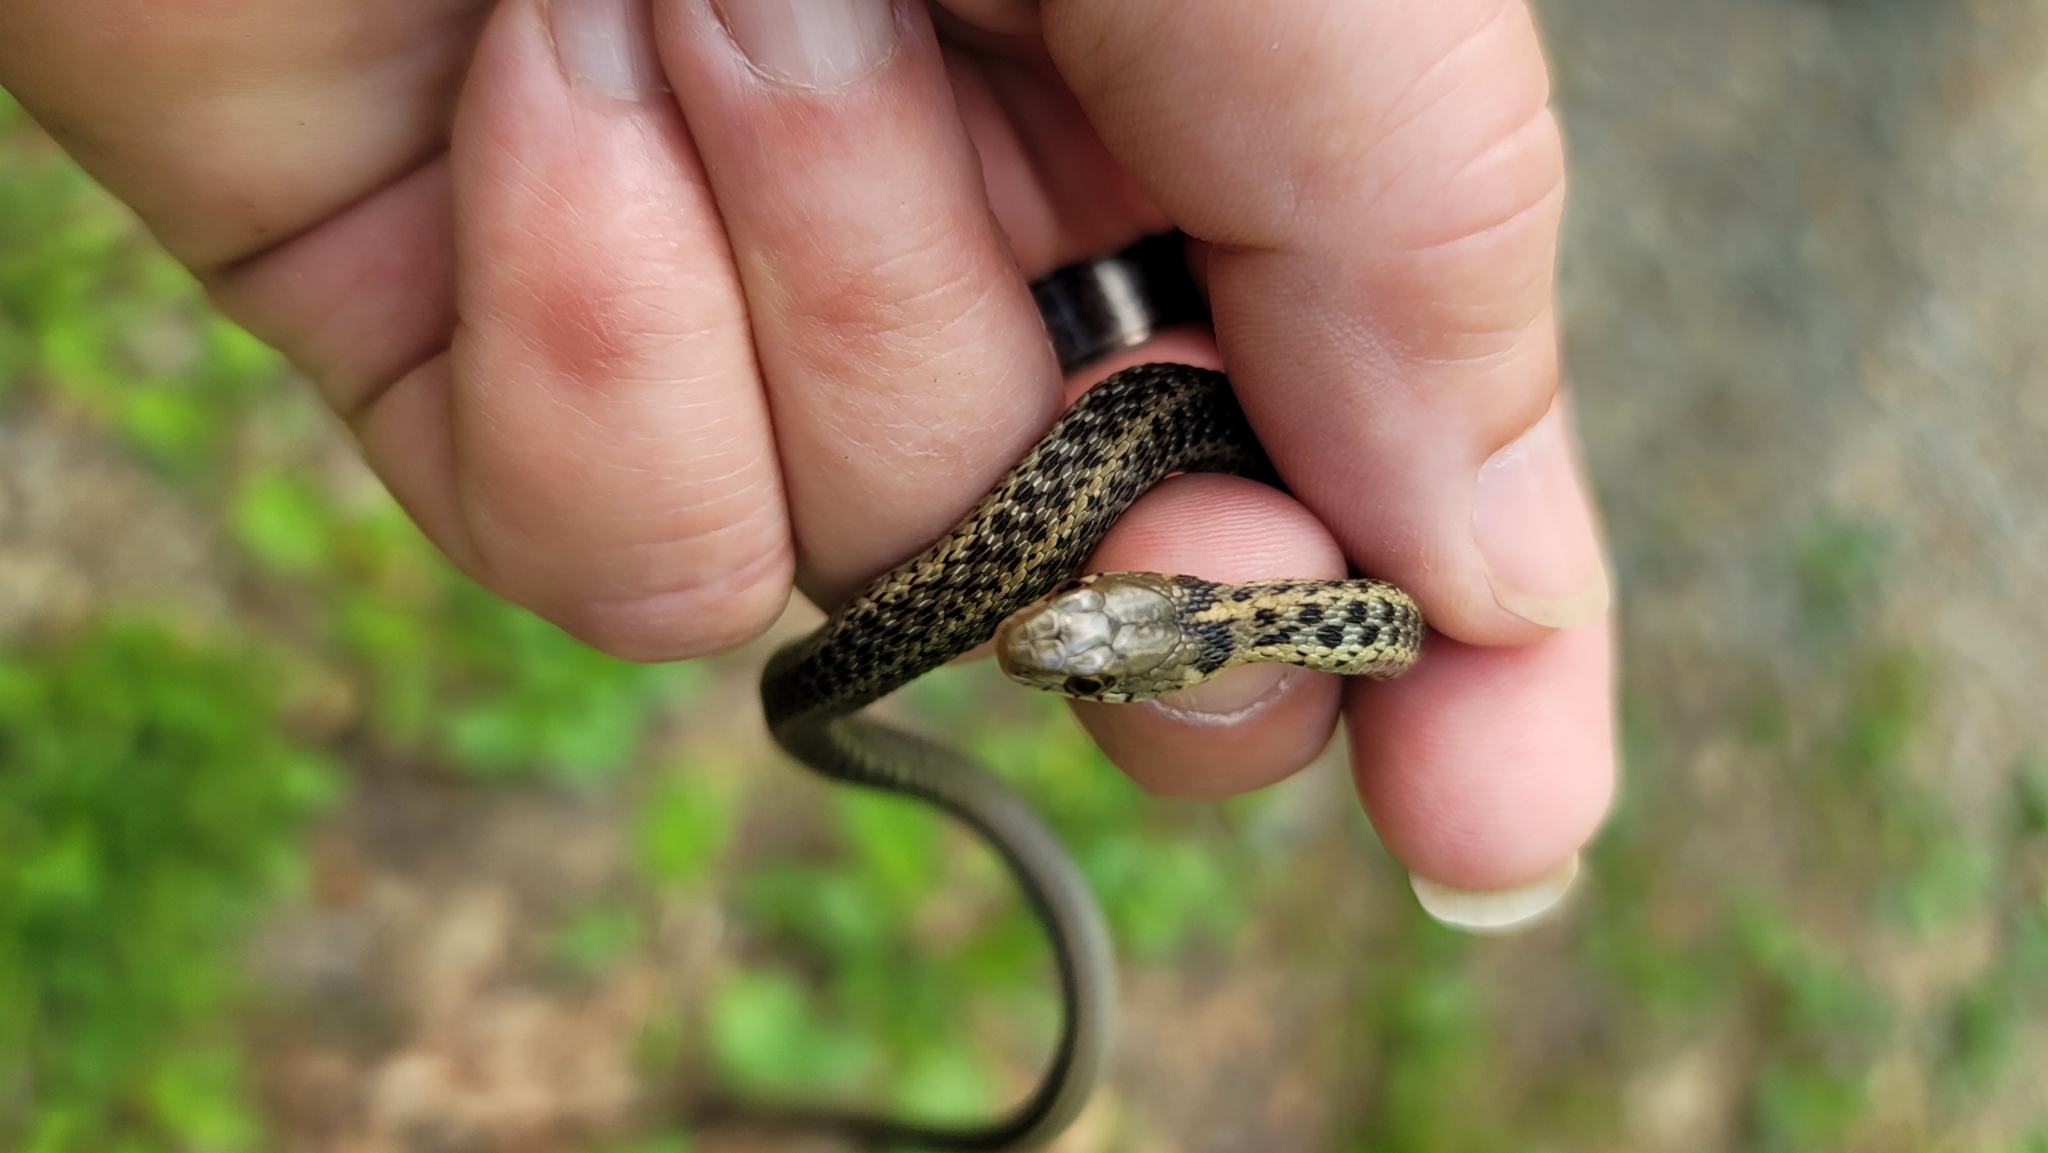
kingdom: Animalia
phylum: Chordata
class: Squamata
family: Colubridae
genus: Thamnophis
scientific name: Thamnophis sirtalis
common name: Common garter snake
